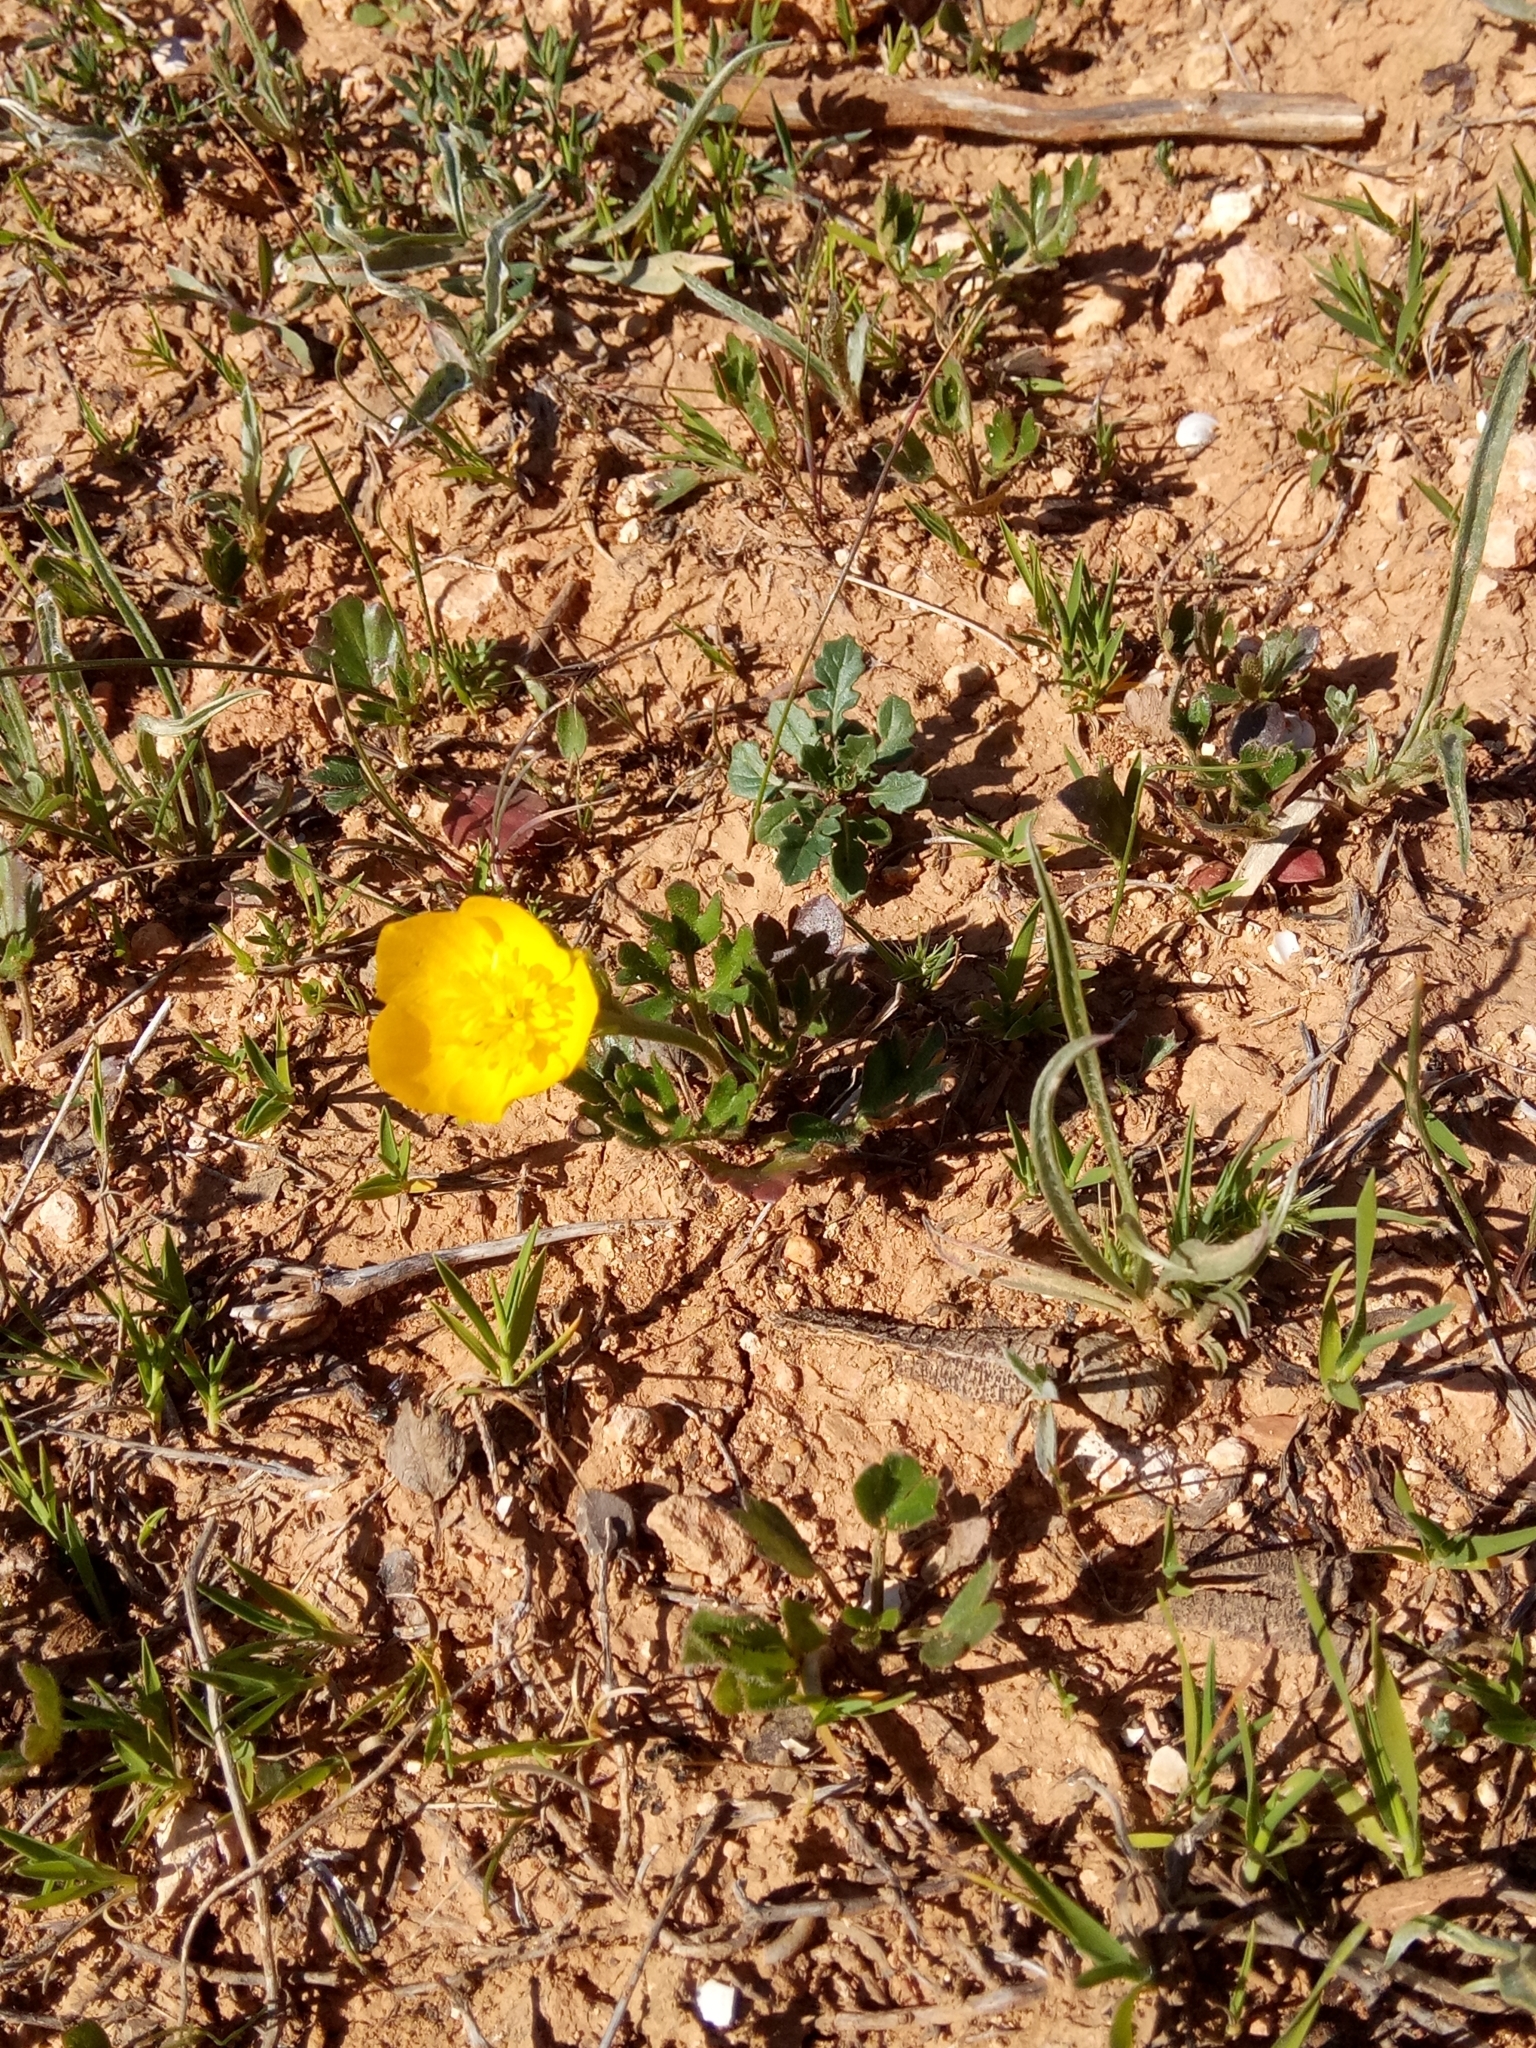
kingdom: Plantae
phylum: Tracheophyta
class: Magnoliopsida
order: Ranunculales
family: Ranunculaceae
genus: Ranunculus
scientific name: Ranunculus paludosus
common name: Jersey buttercup
